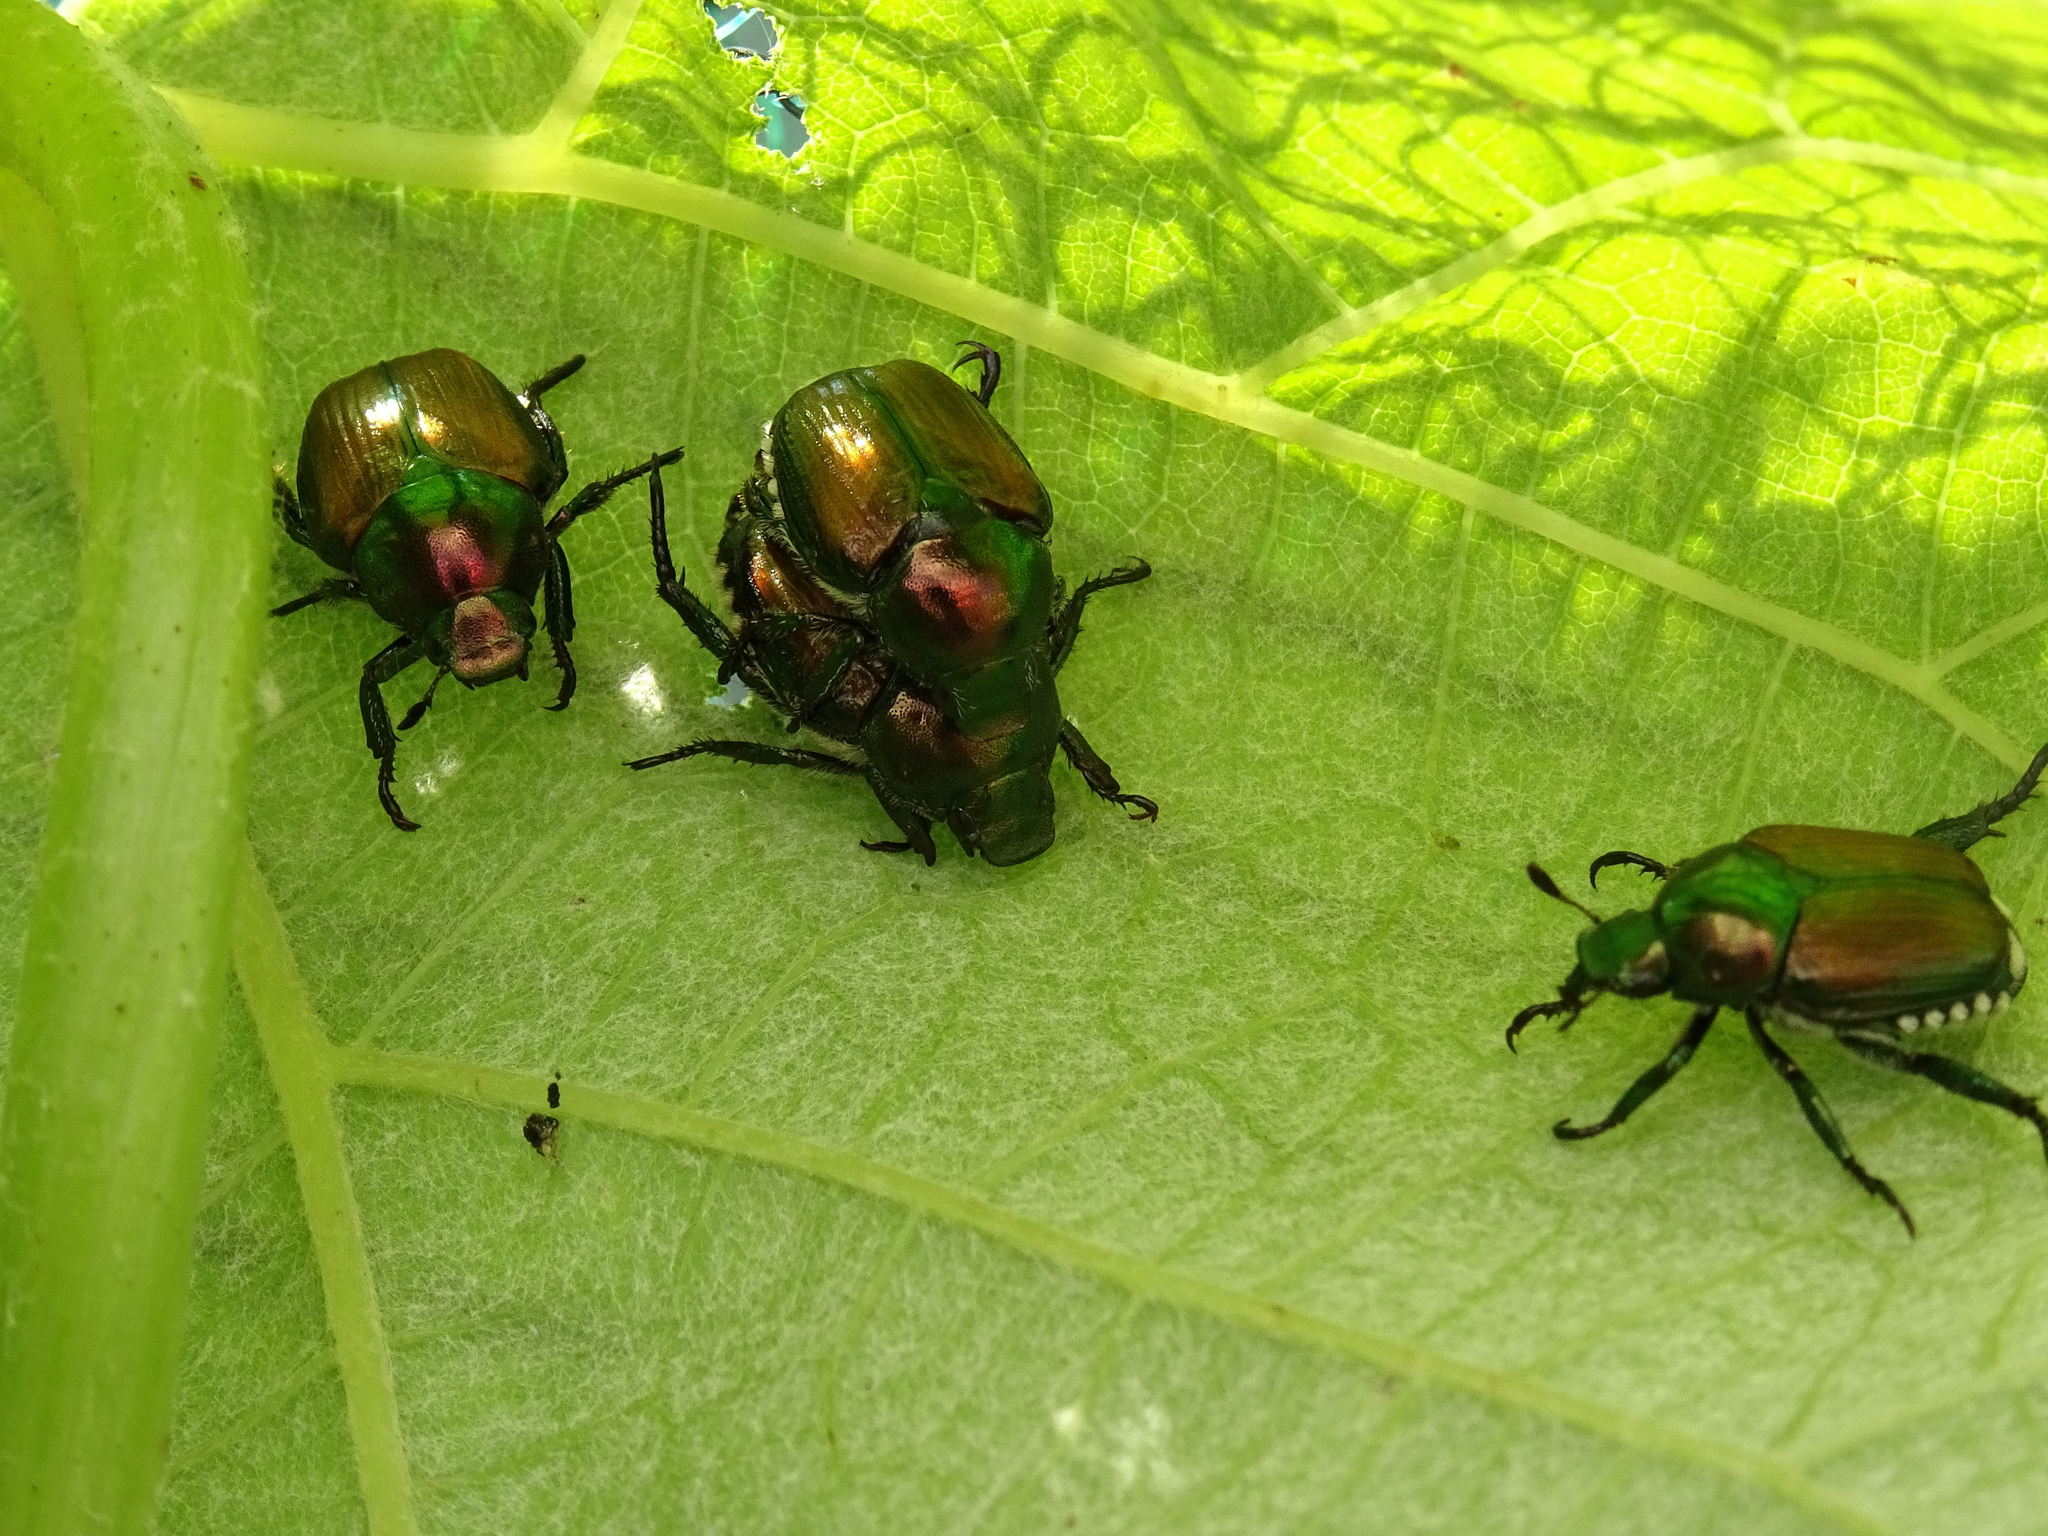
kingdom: Animalia
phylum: Arthropoda
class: Insecta
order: Coleoptera
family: Scarabaeidae
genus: Popillia
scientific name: Popillia japonica
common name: Japanese beetle
